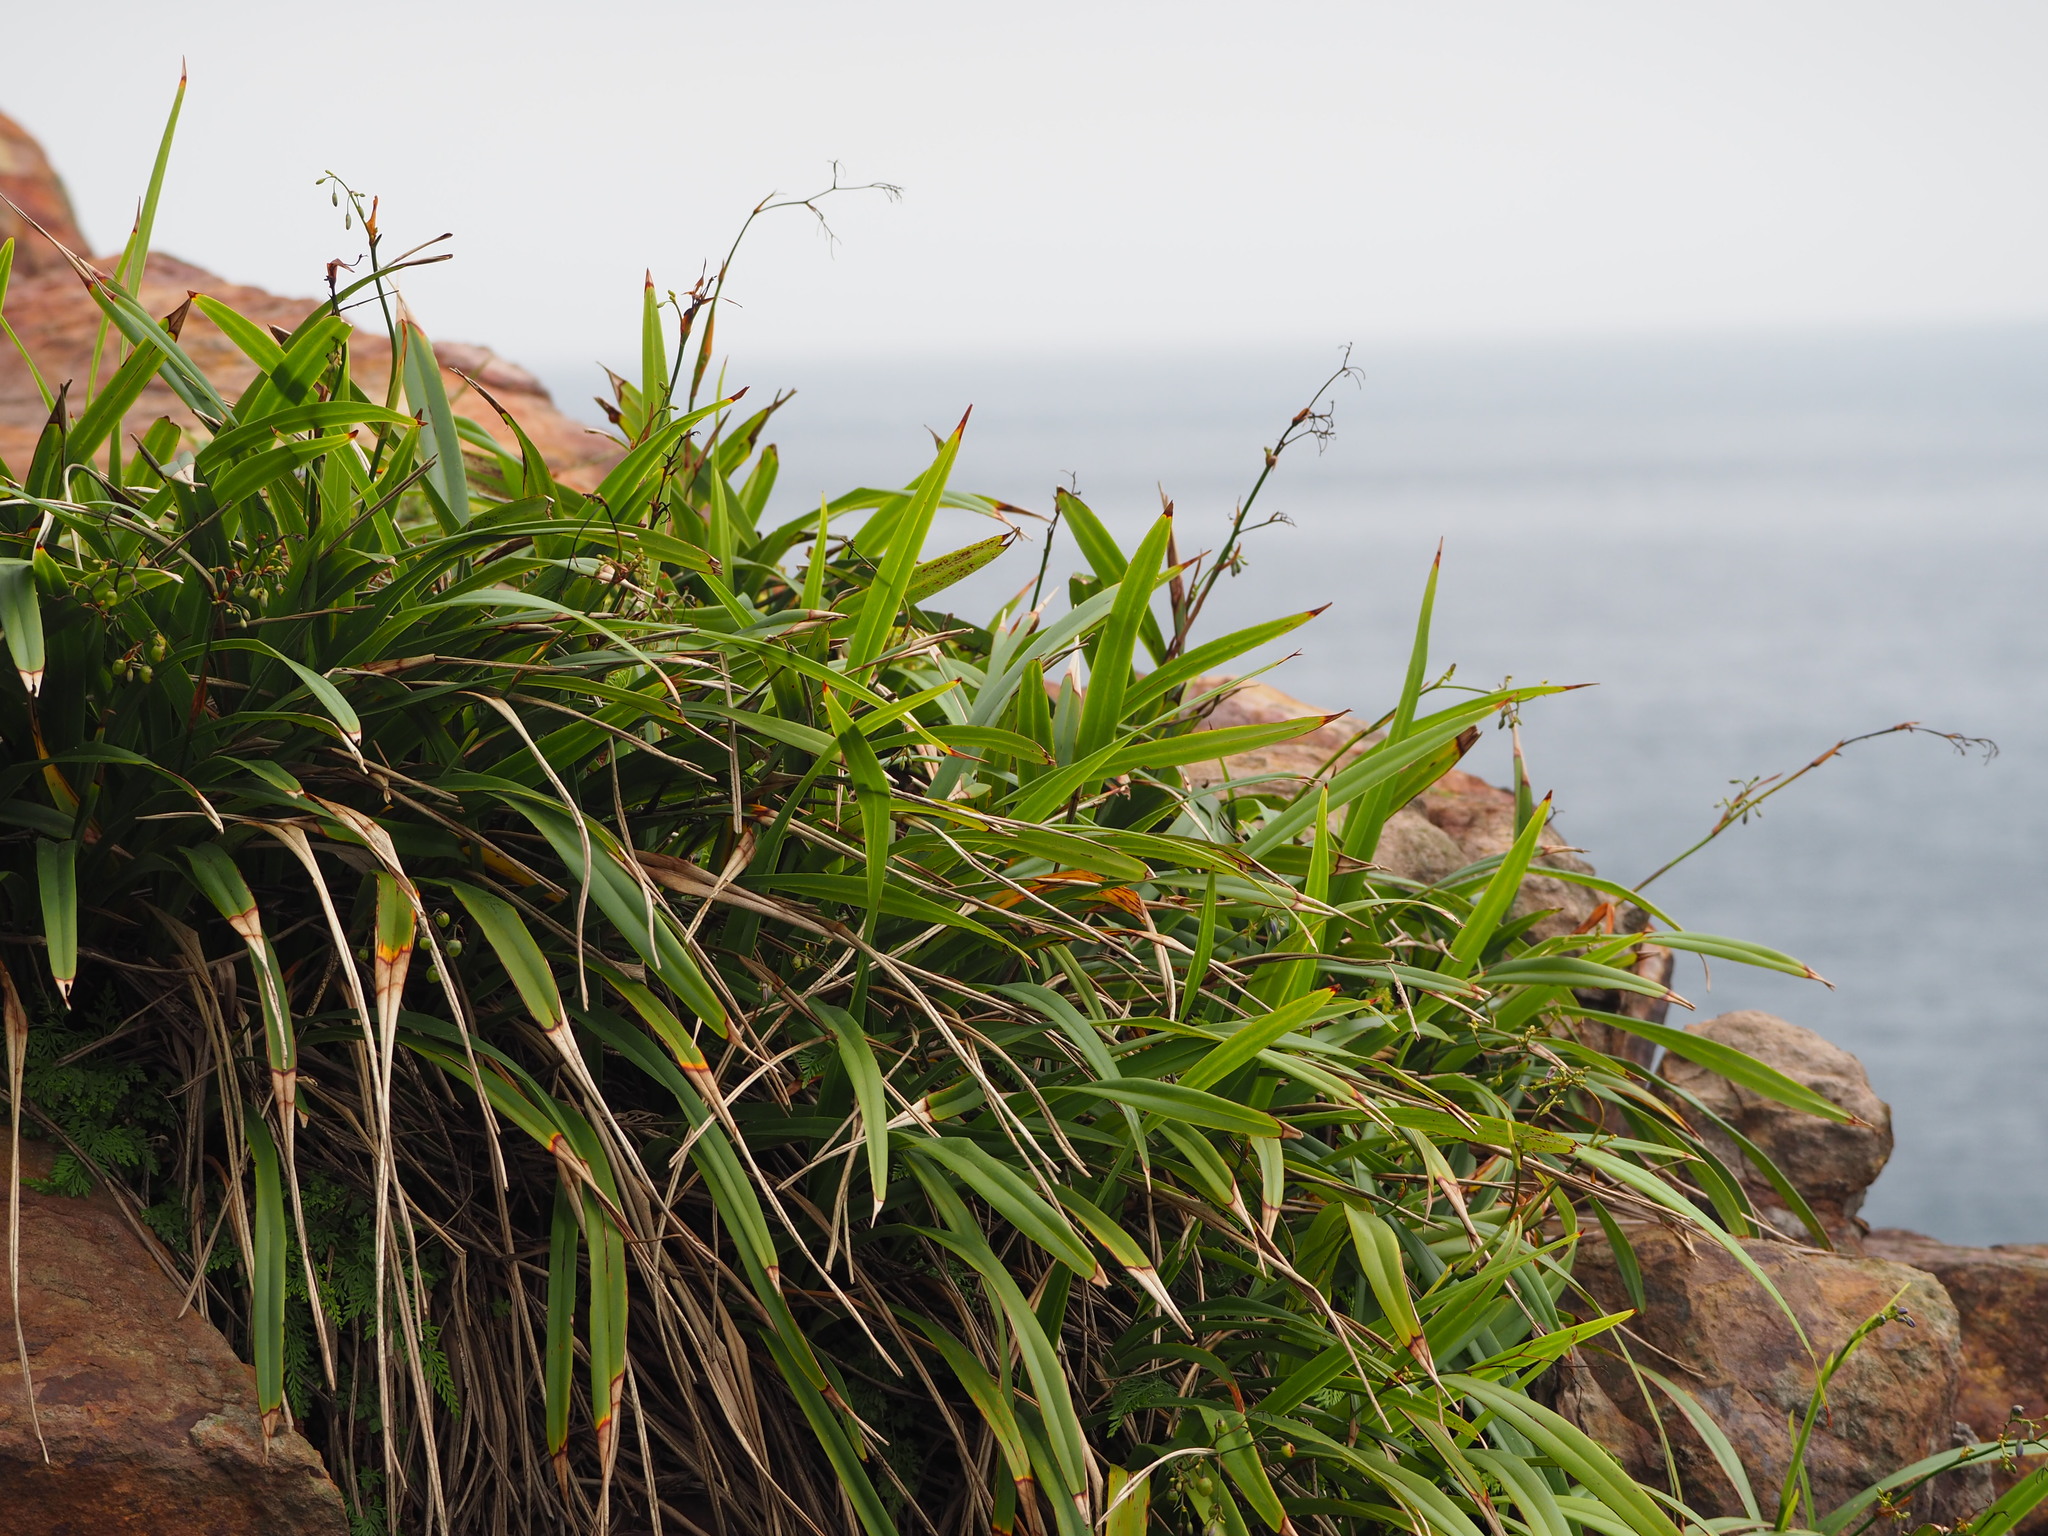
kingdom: Plantae
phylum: Tracheophyta
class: Liliopsida
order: Asparagales
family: Asphodelaceae
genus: Dianella
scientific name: Dianella ensifolia
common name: New zealand lilyplant
